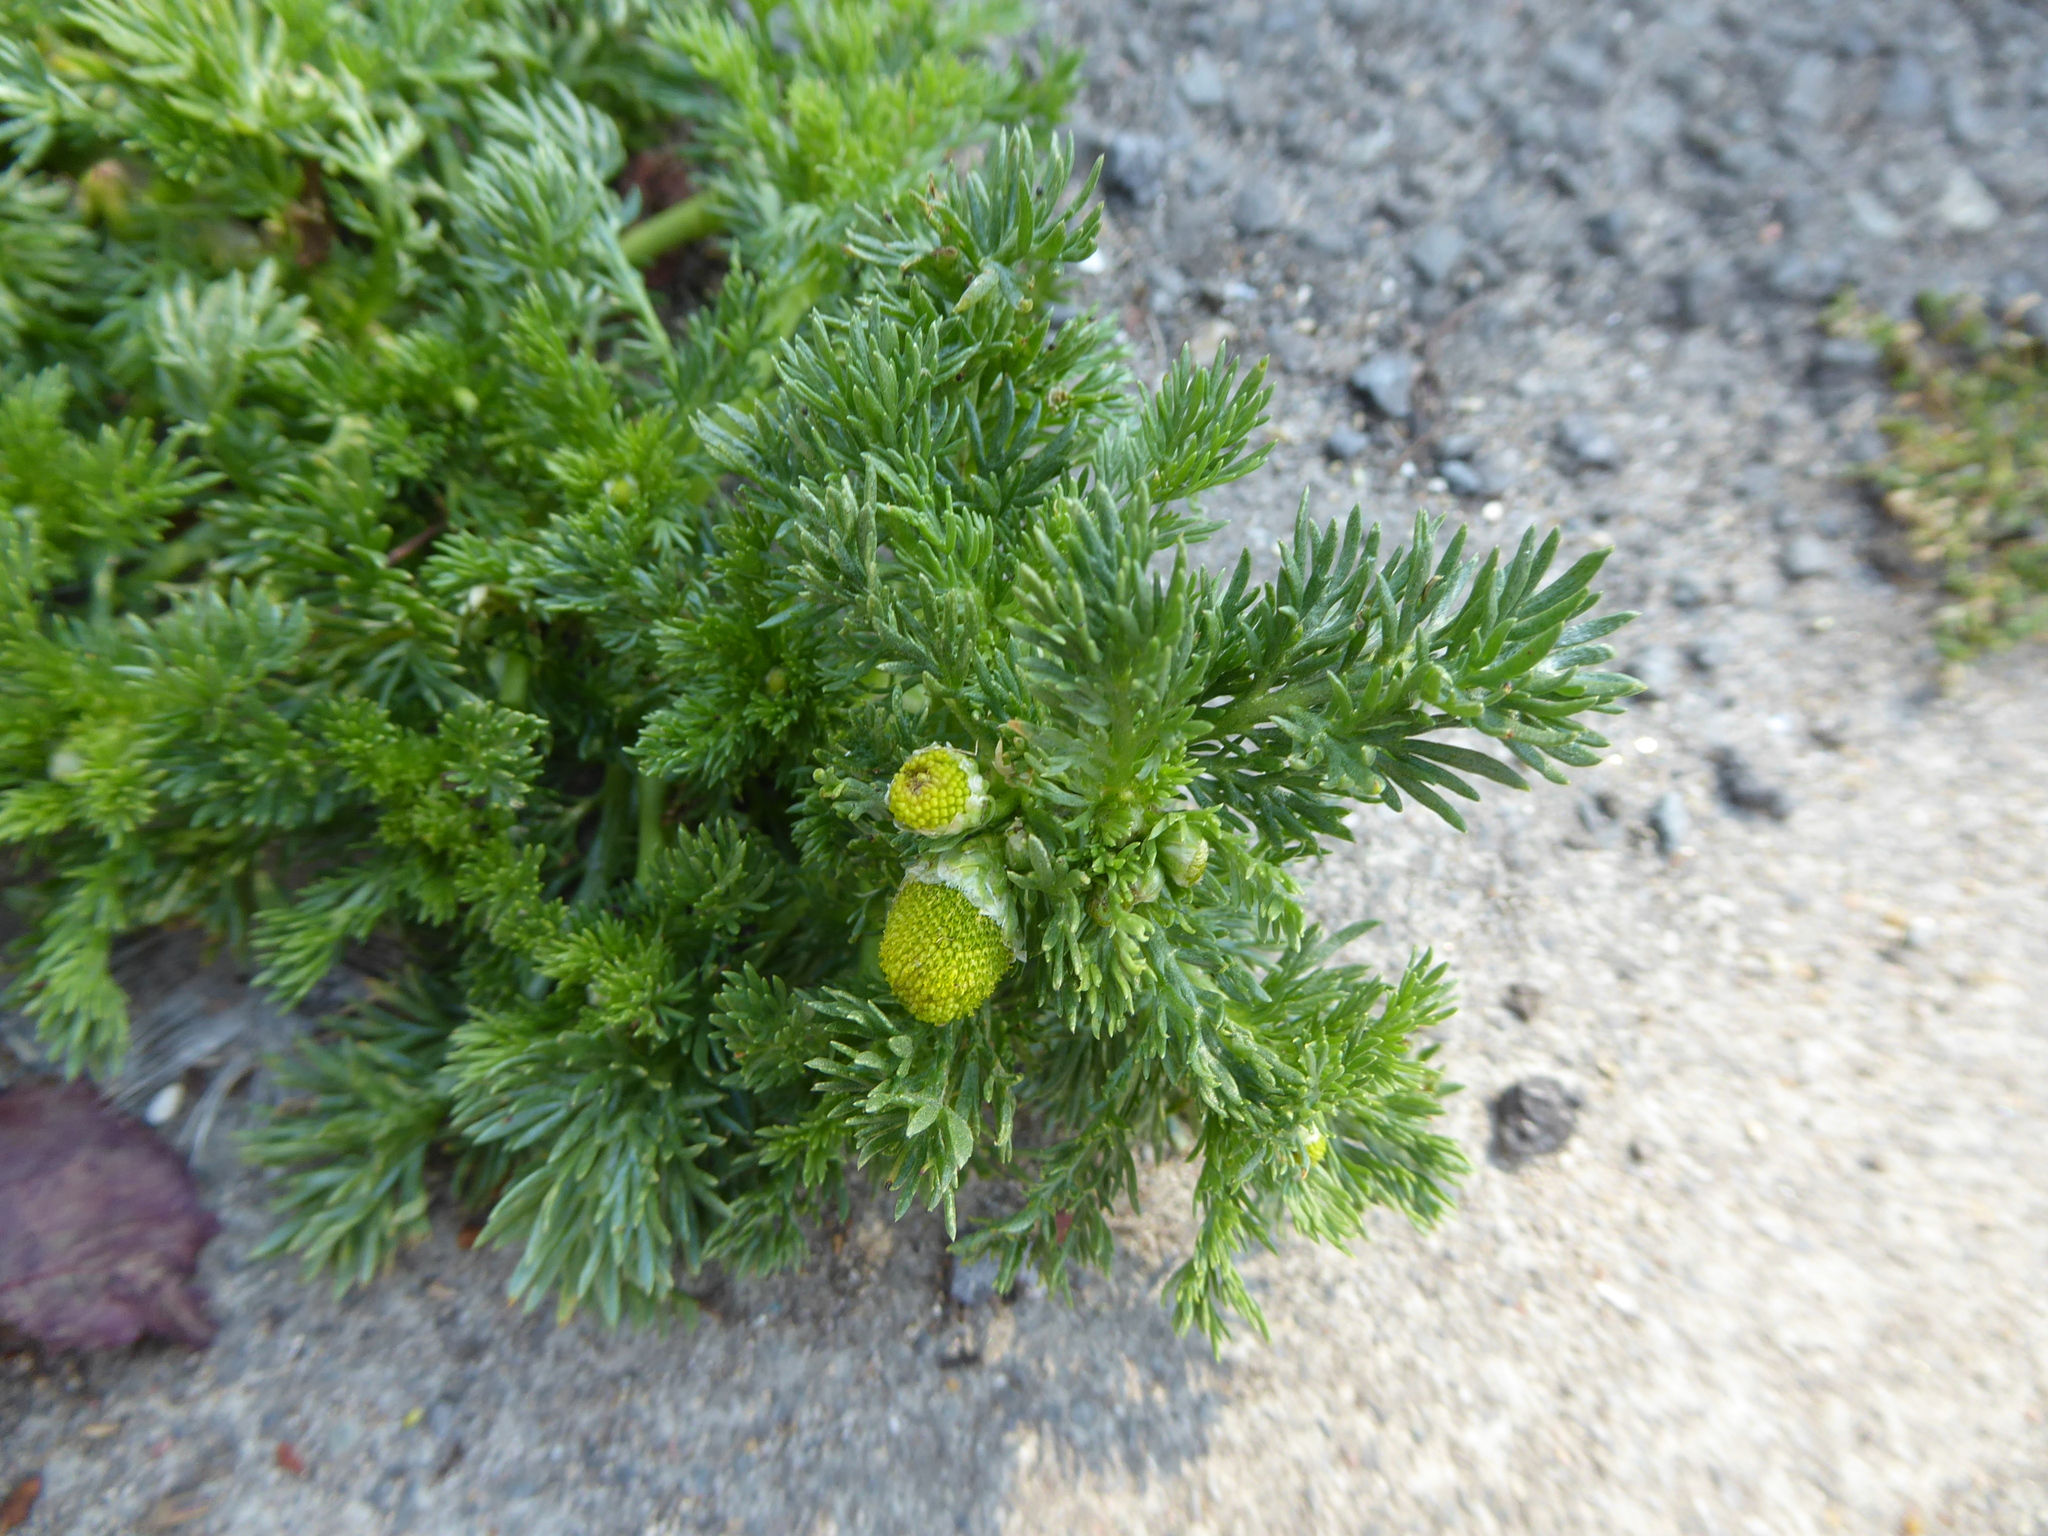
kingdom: Plantae
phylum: Tracheophyta
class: Magnoliopsida
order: Asterales
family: Asteraceae
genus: Matricaria
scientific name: Matricaria discoidea
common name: Disc mayweed
